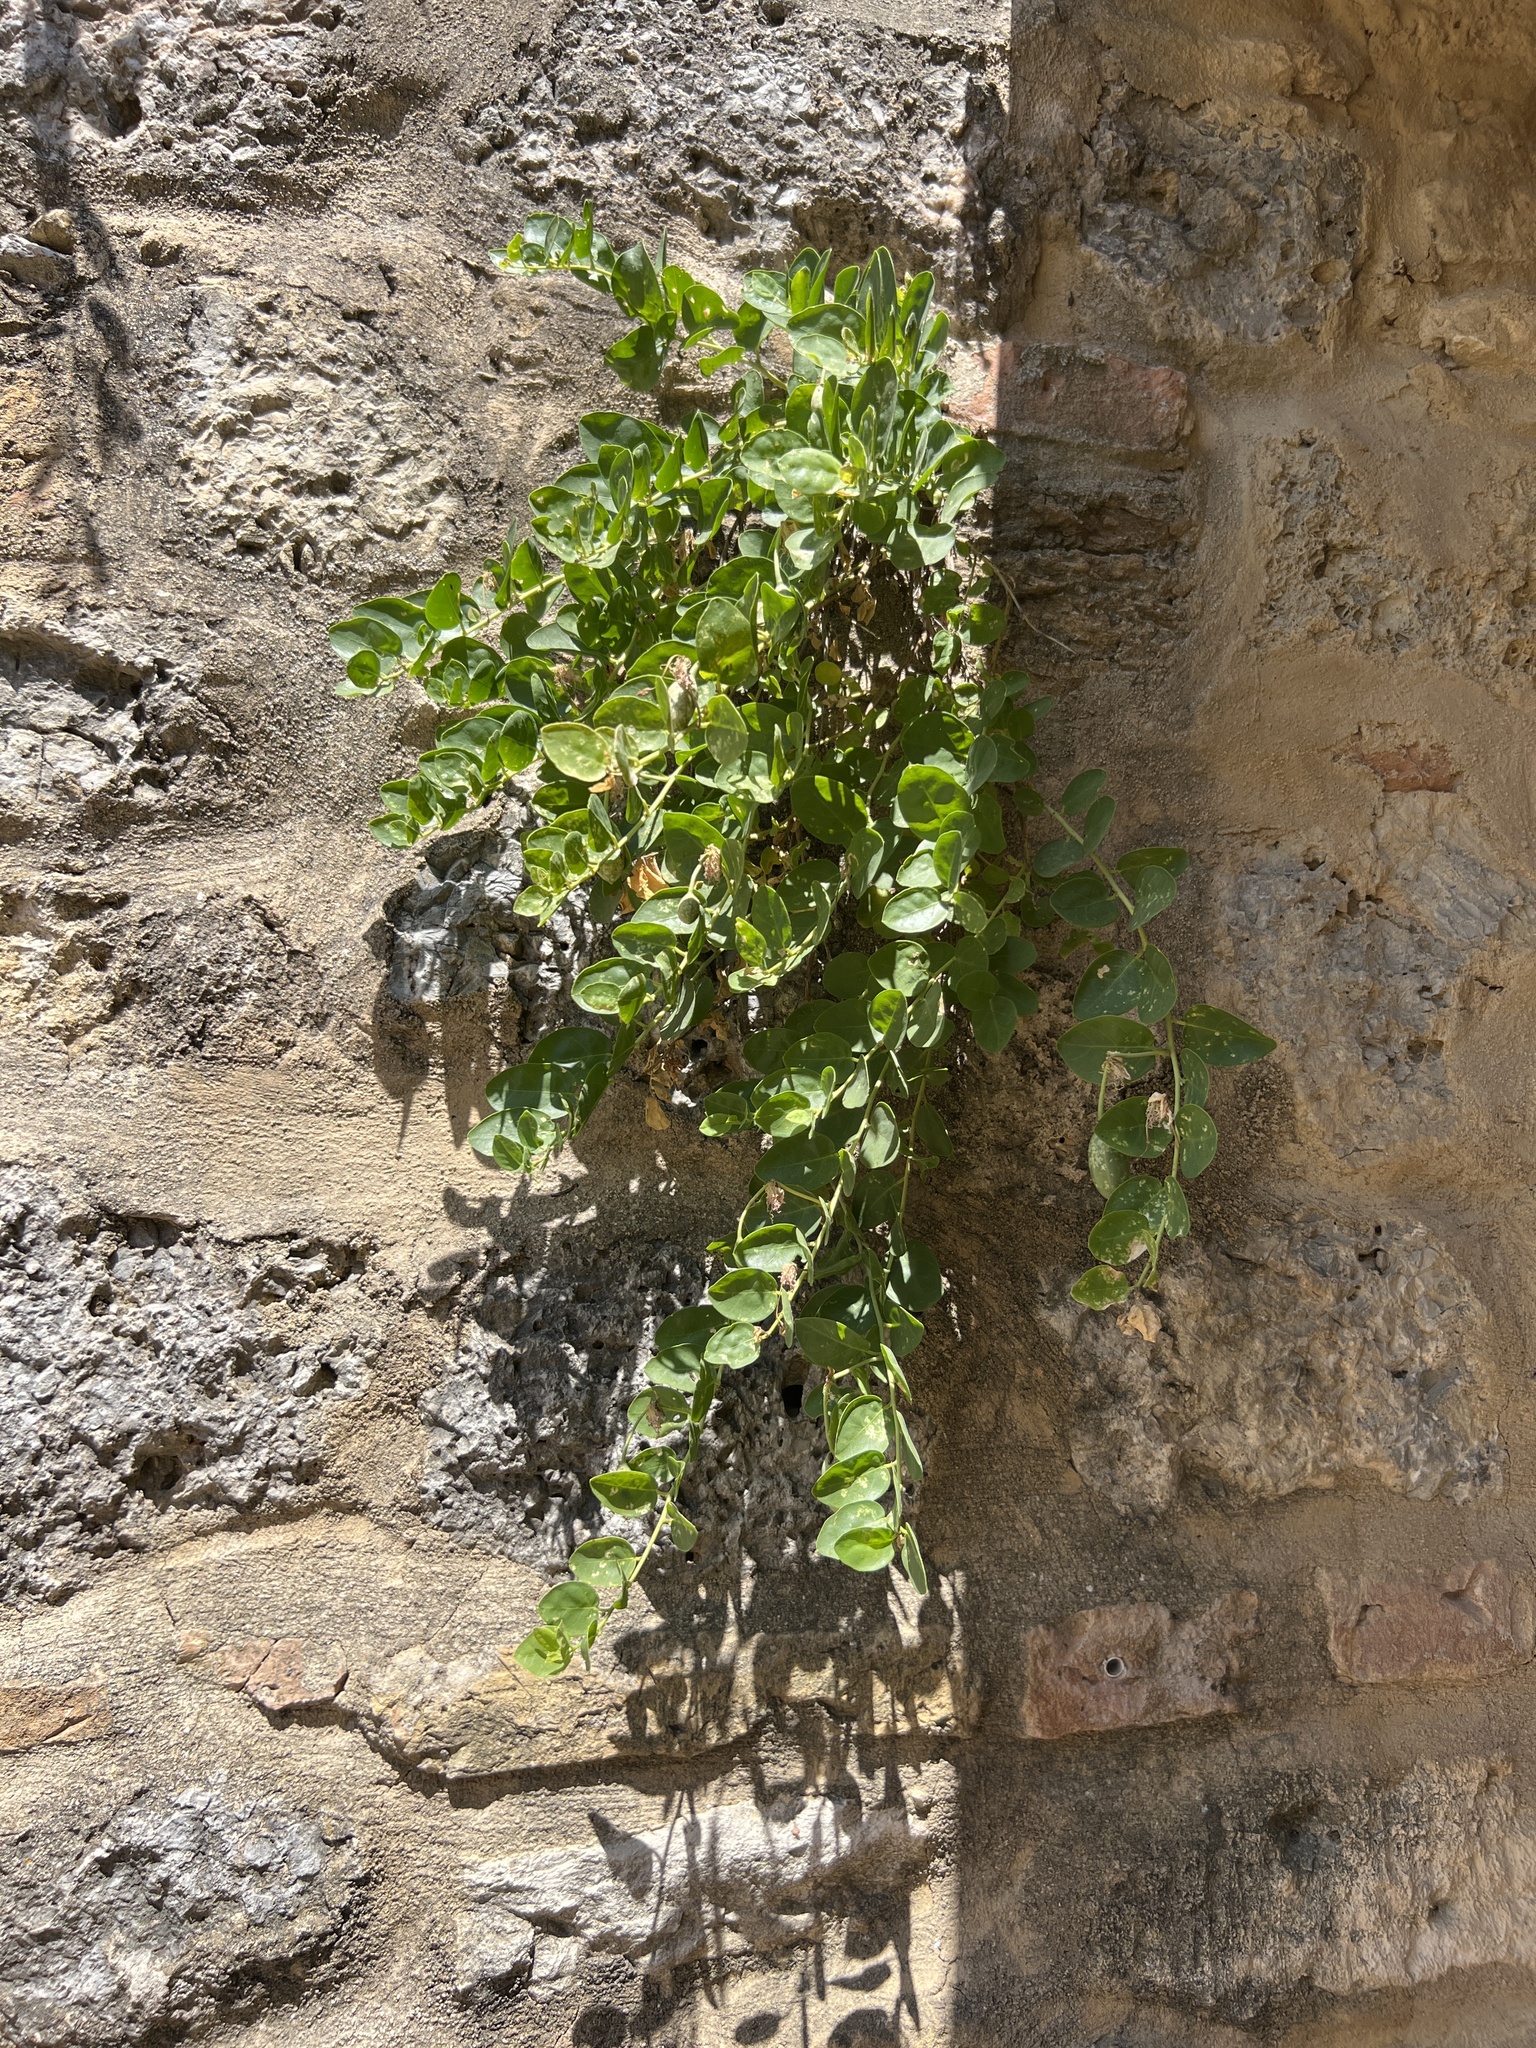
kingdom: Plantae
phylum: Tracheophyta
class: Magnoliopsida
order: Brassicales
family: Capparaceae
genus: Capparis
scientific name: Capparis orientalis
